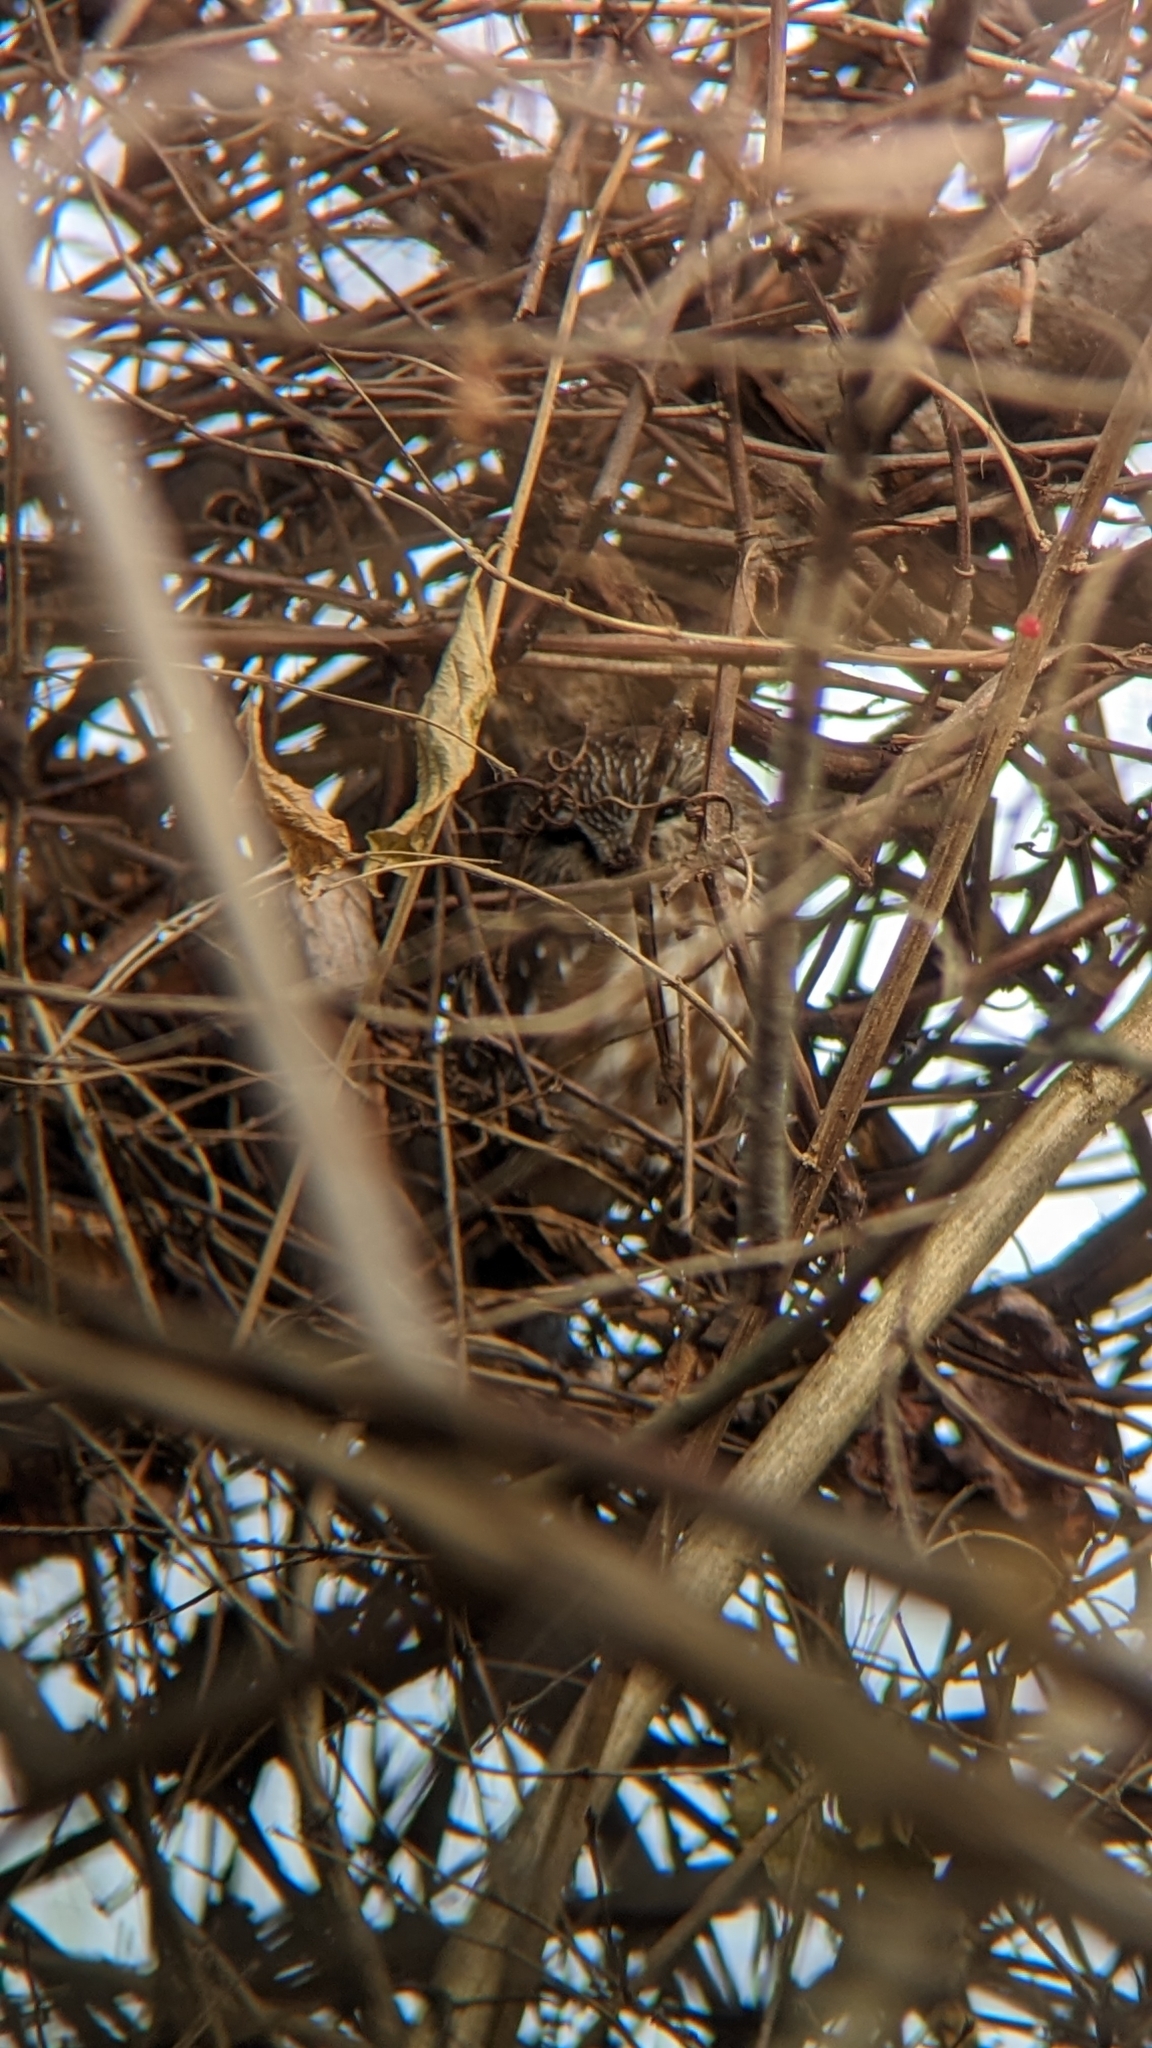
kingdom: Animalia
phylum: Chordata
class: Aves
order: Strigiformes
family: Strigidae
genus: Aegolius
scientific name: Aegolius acadicus
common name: Northern saw-whet owl
